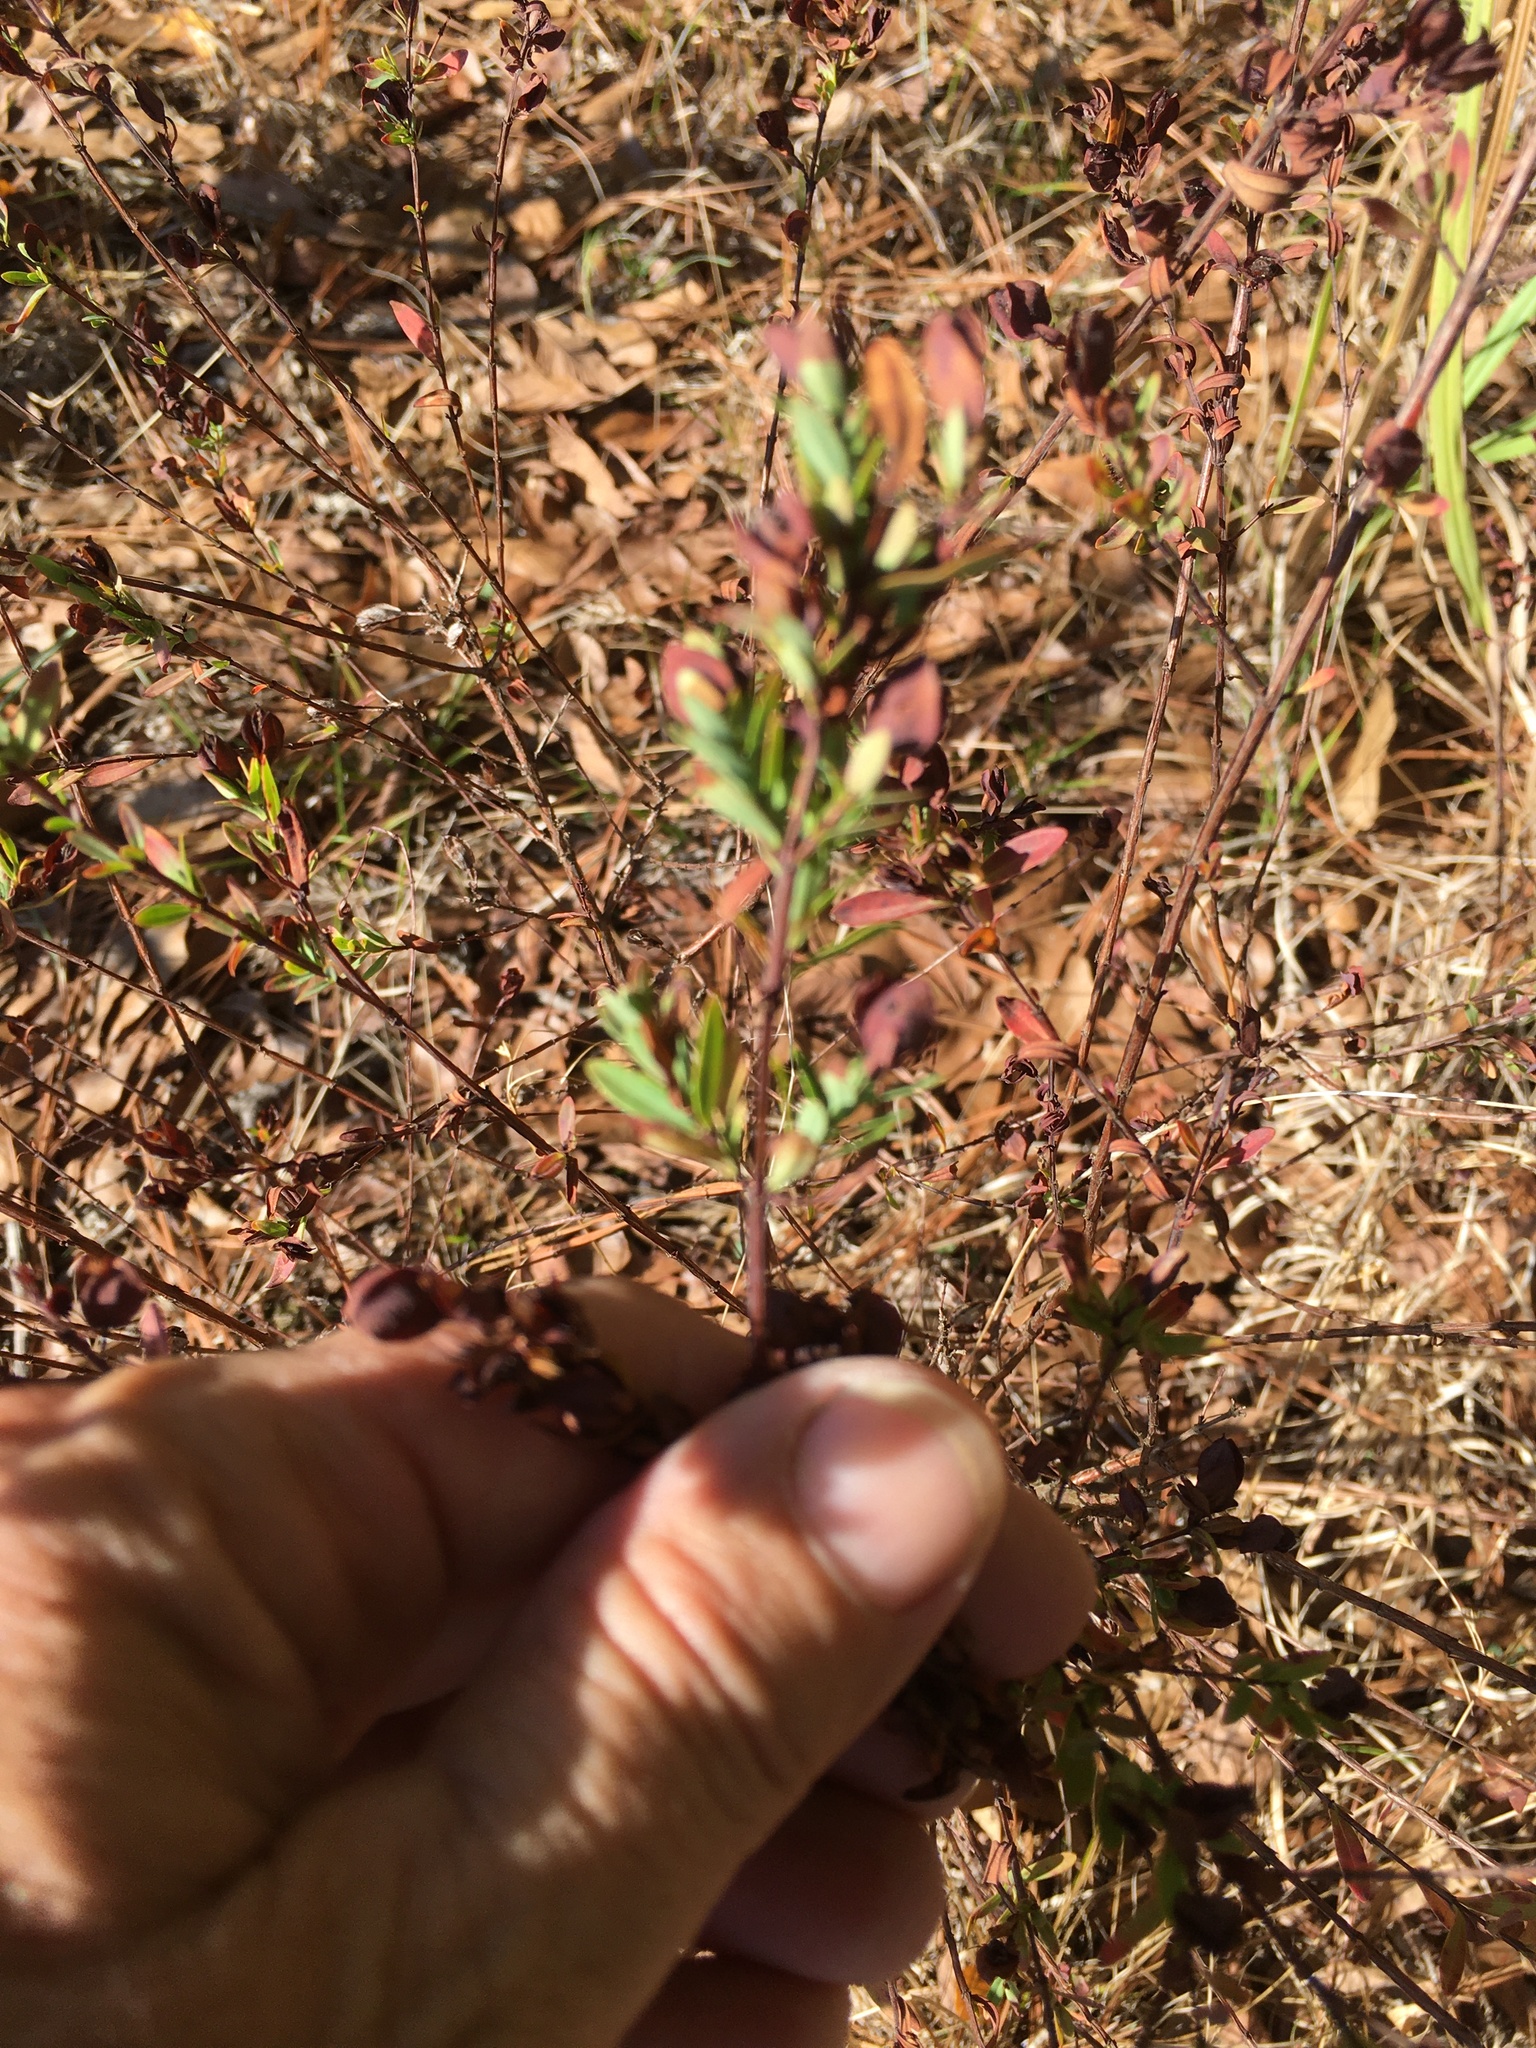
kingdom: Plantae
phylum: Tracheophyta
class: Magnoliopsida
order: Malpighiales
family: Hypericaceae
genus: Hypericum
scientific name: Hypericum hypericoides
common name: St. andrew's cross
